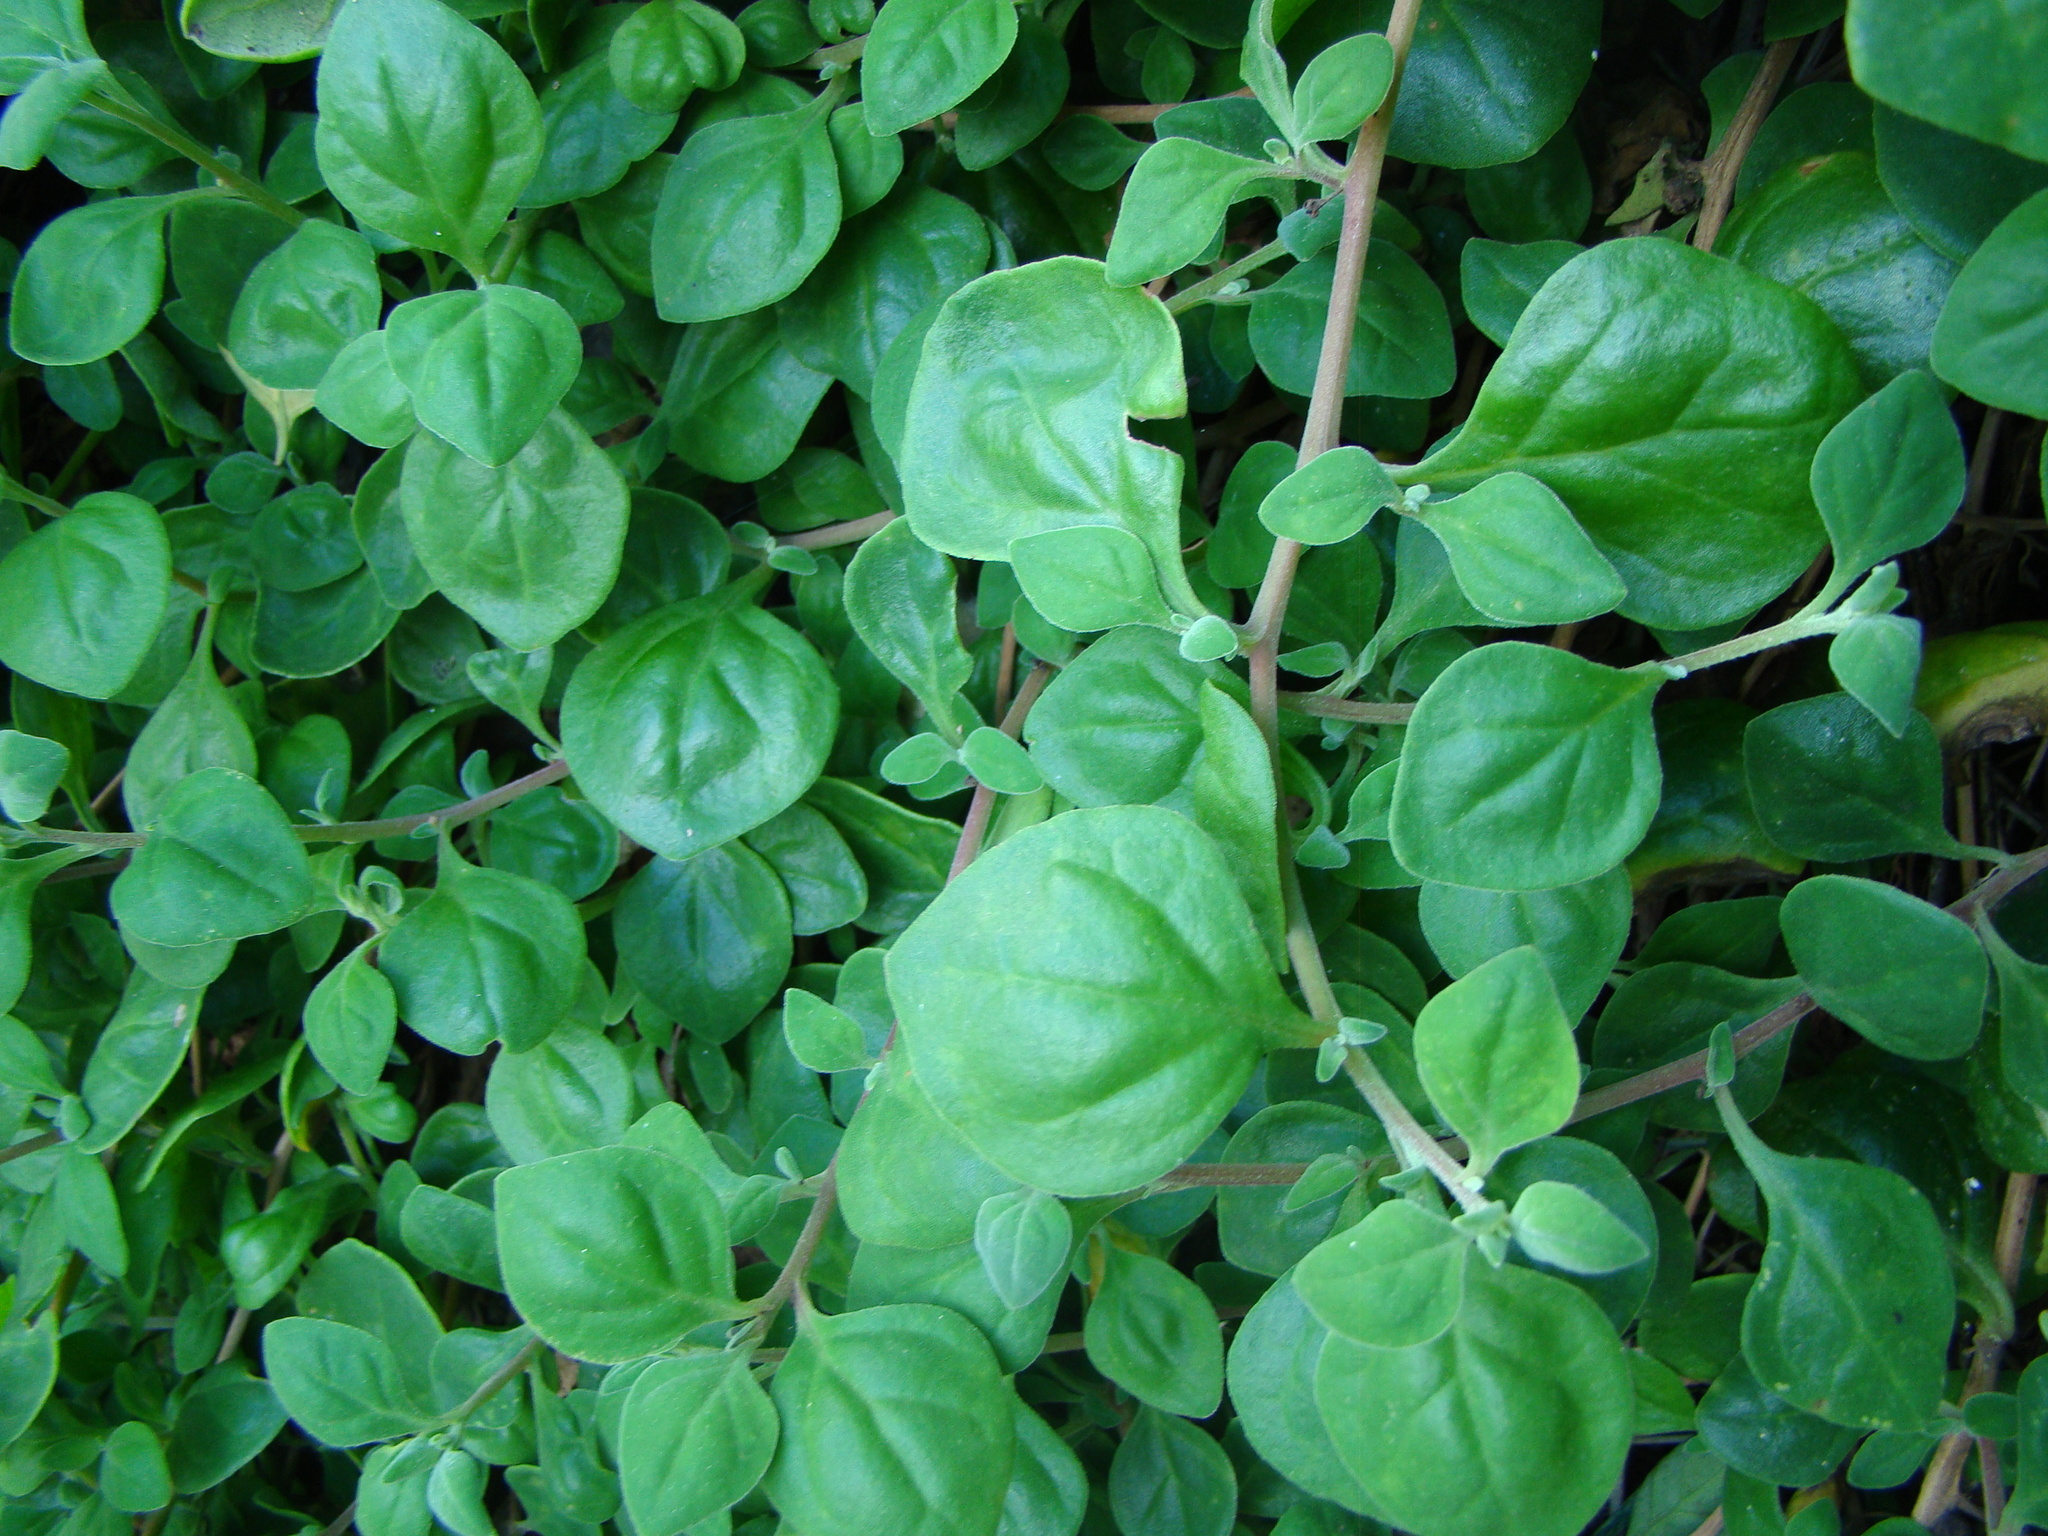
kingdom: Plantae
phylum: Tracheophyta
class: Magnoliopsida
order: Caryophyllales
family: Aizoaceae
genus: Tetragonia
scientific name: Tetragonia implexicoma
